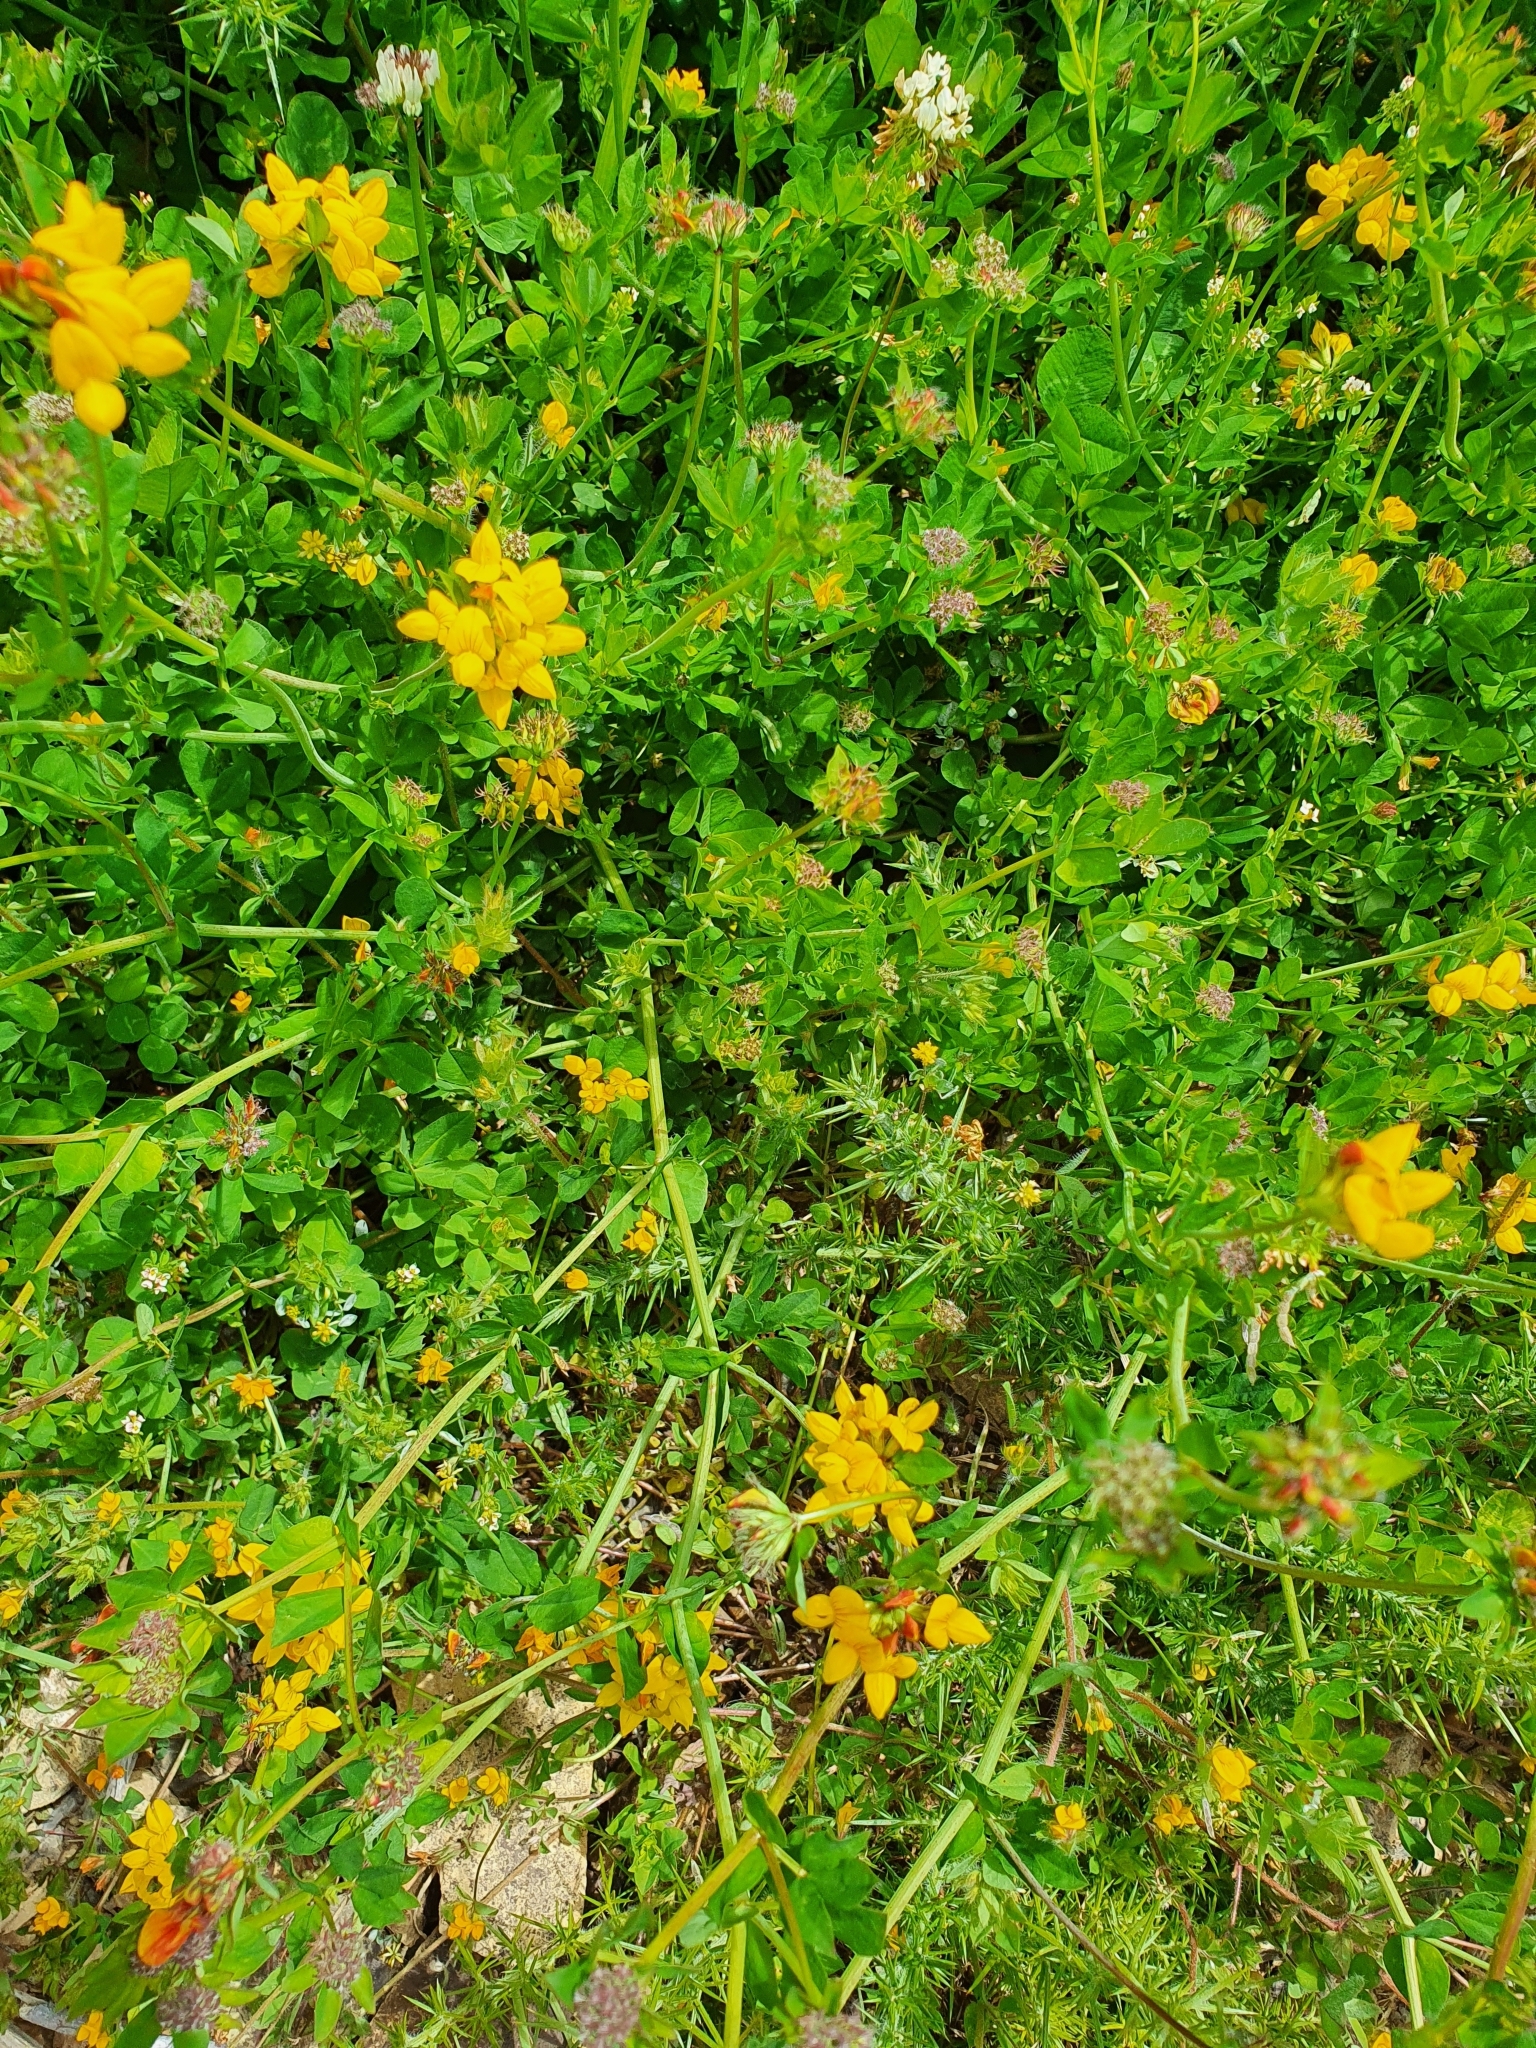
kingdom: Plantae
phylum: Tracheophyta
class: Magnoliopsida
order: Fabales
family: Fabaceae
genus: Lotus
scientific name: Lotus pedunculatus
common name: Greater birdsfoot-trefoil
